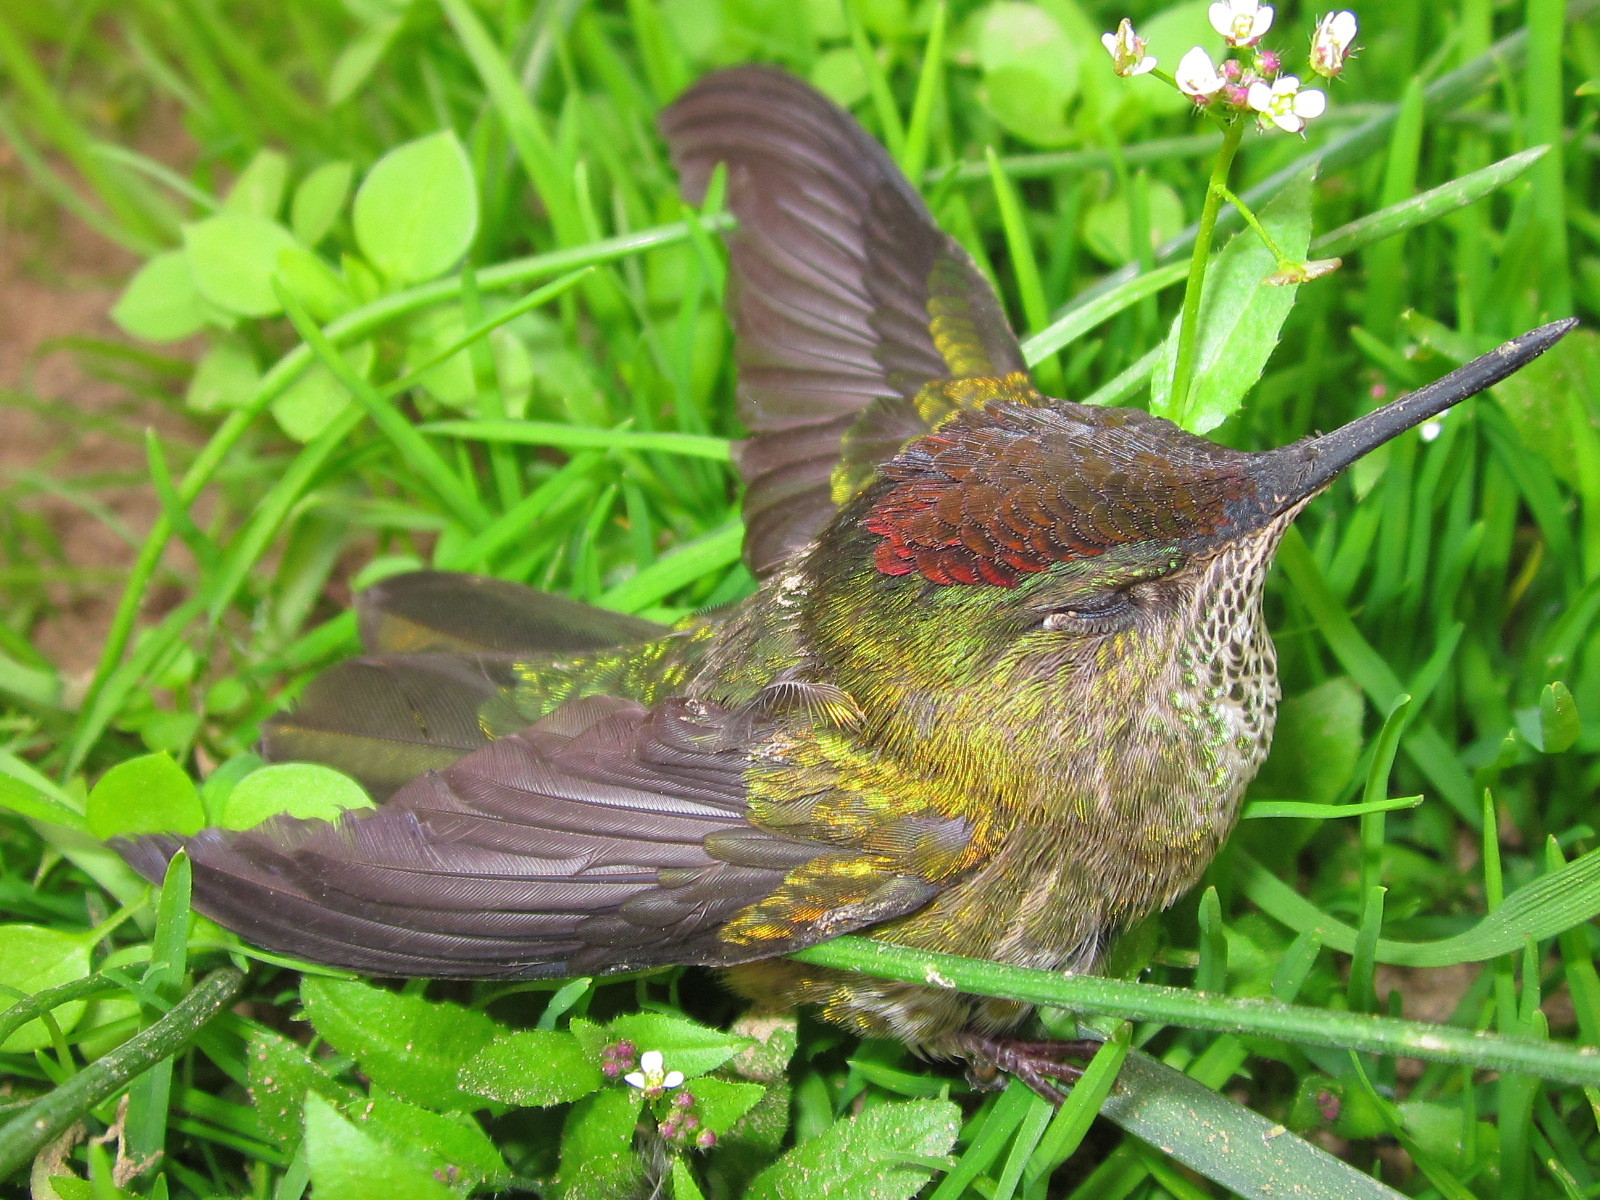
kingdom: Animalia
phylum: Chordata
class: Aves
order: Apodiformes
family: Trochilidae
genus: Sephanoides
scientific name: Sephanoides sephaniodes
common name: Green-backed firecrown
